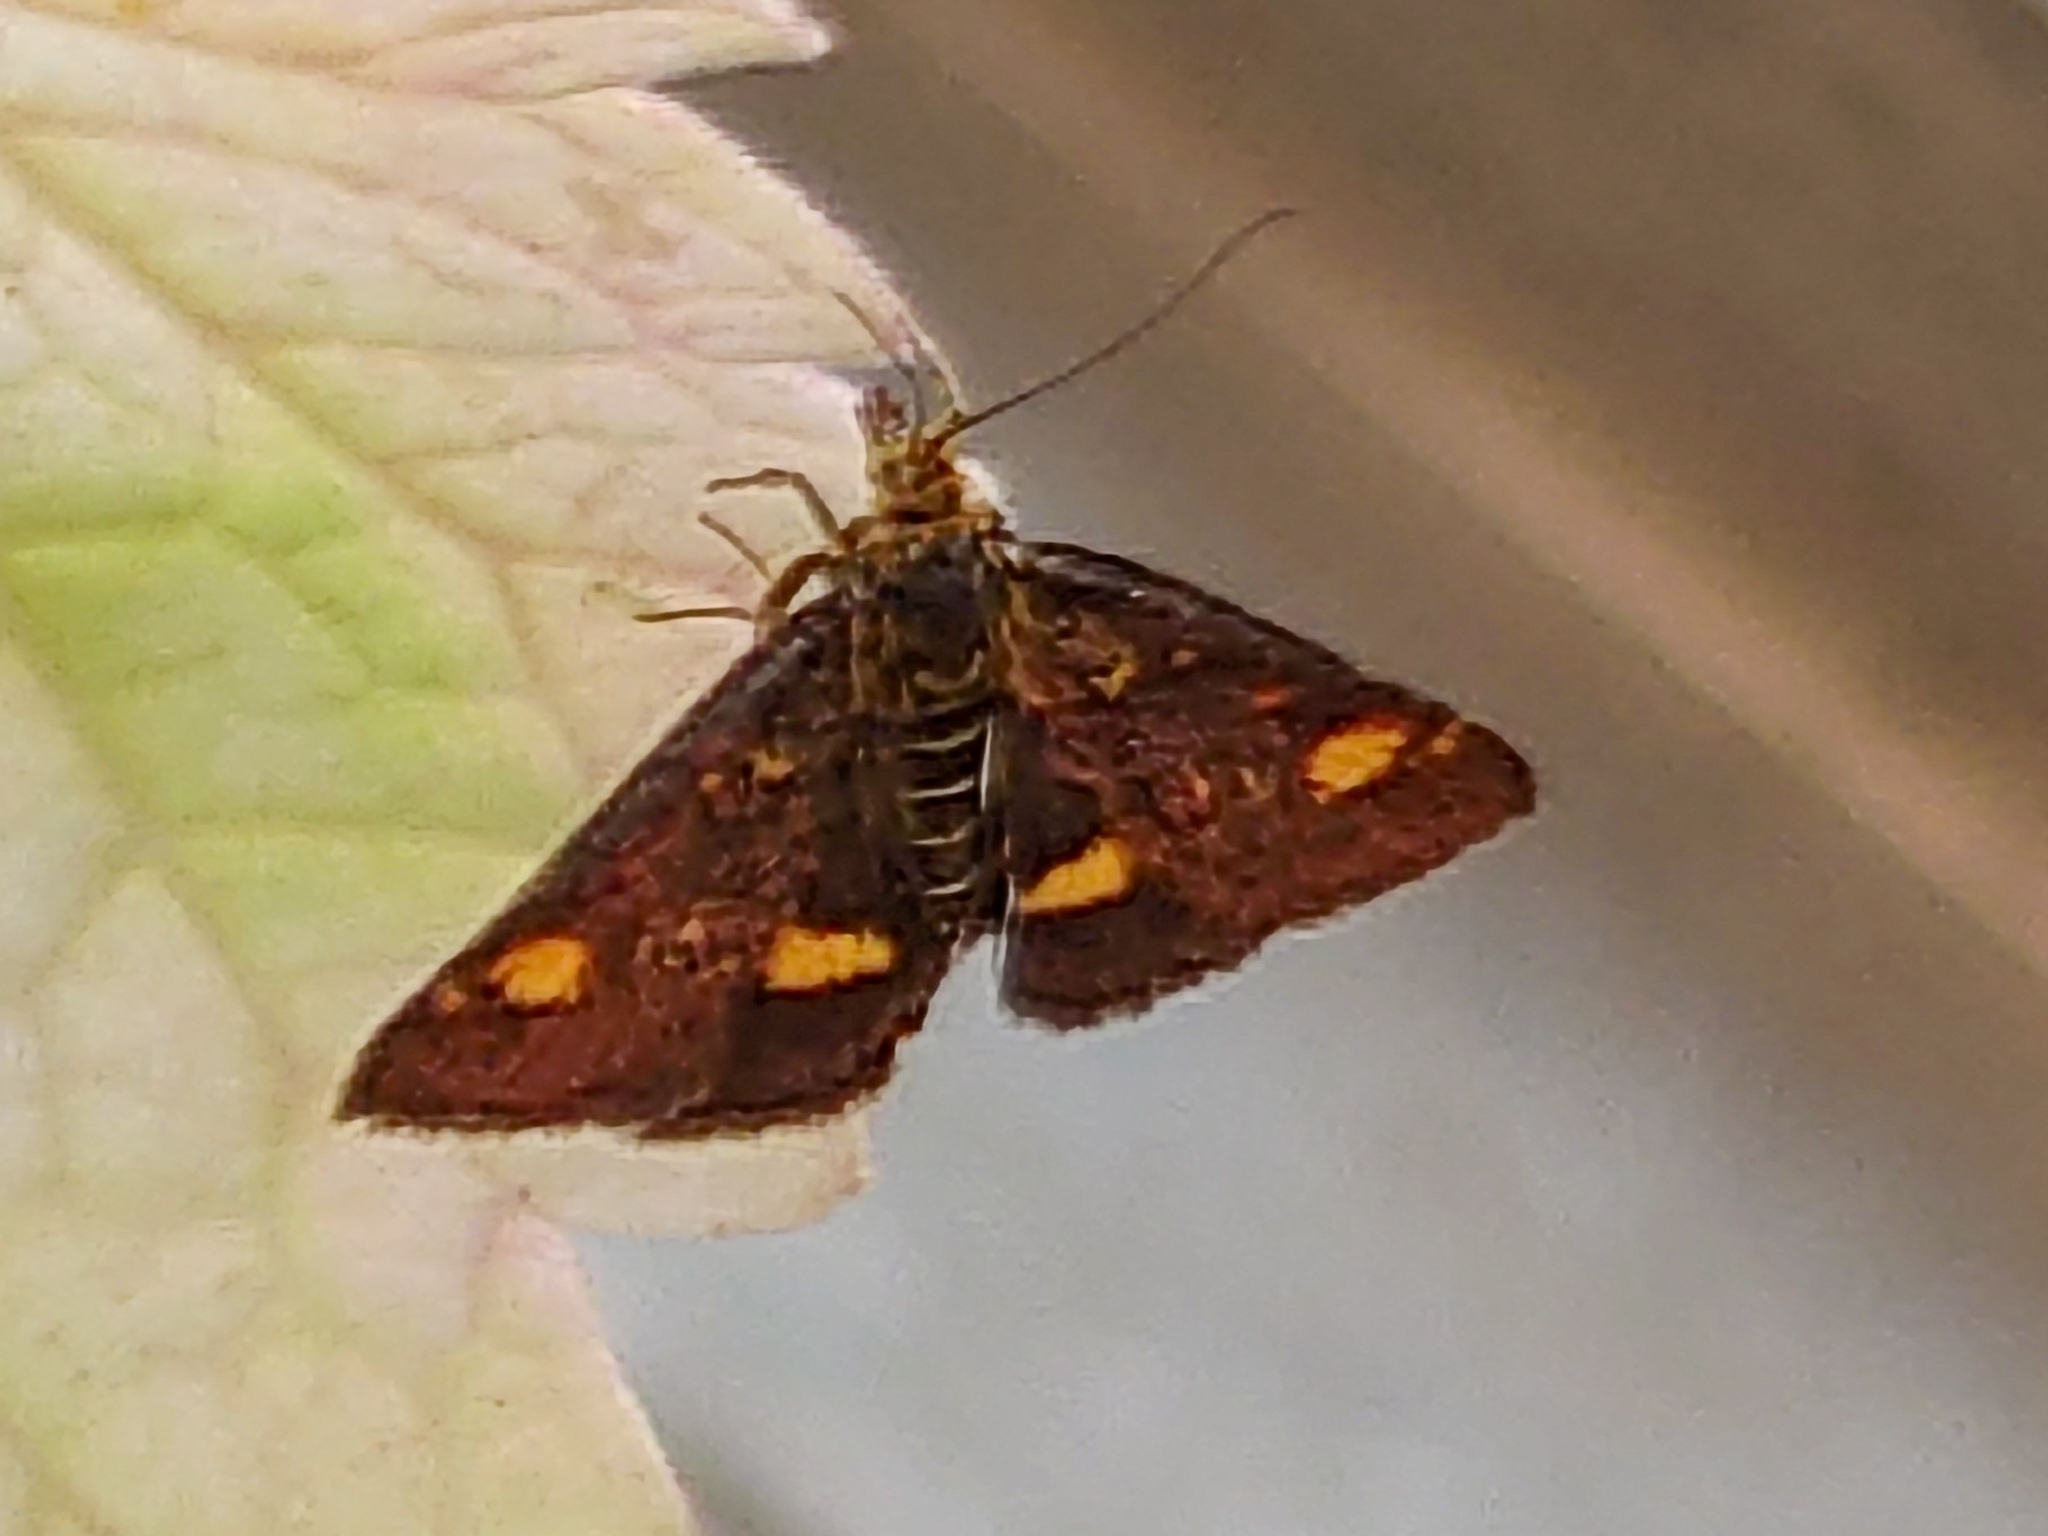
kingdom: Animalia
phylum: Arthropoda
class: Insecta
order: Lepidoptera
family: Crambidae
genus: Pyrausta
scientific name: Pyrausta aurata
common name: Small purple & gold
